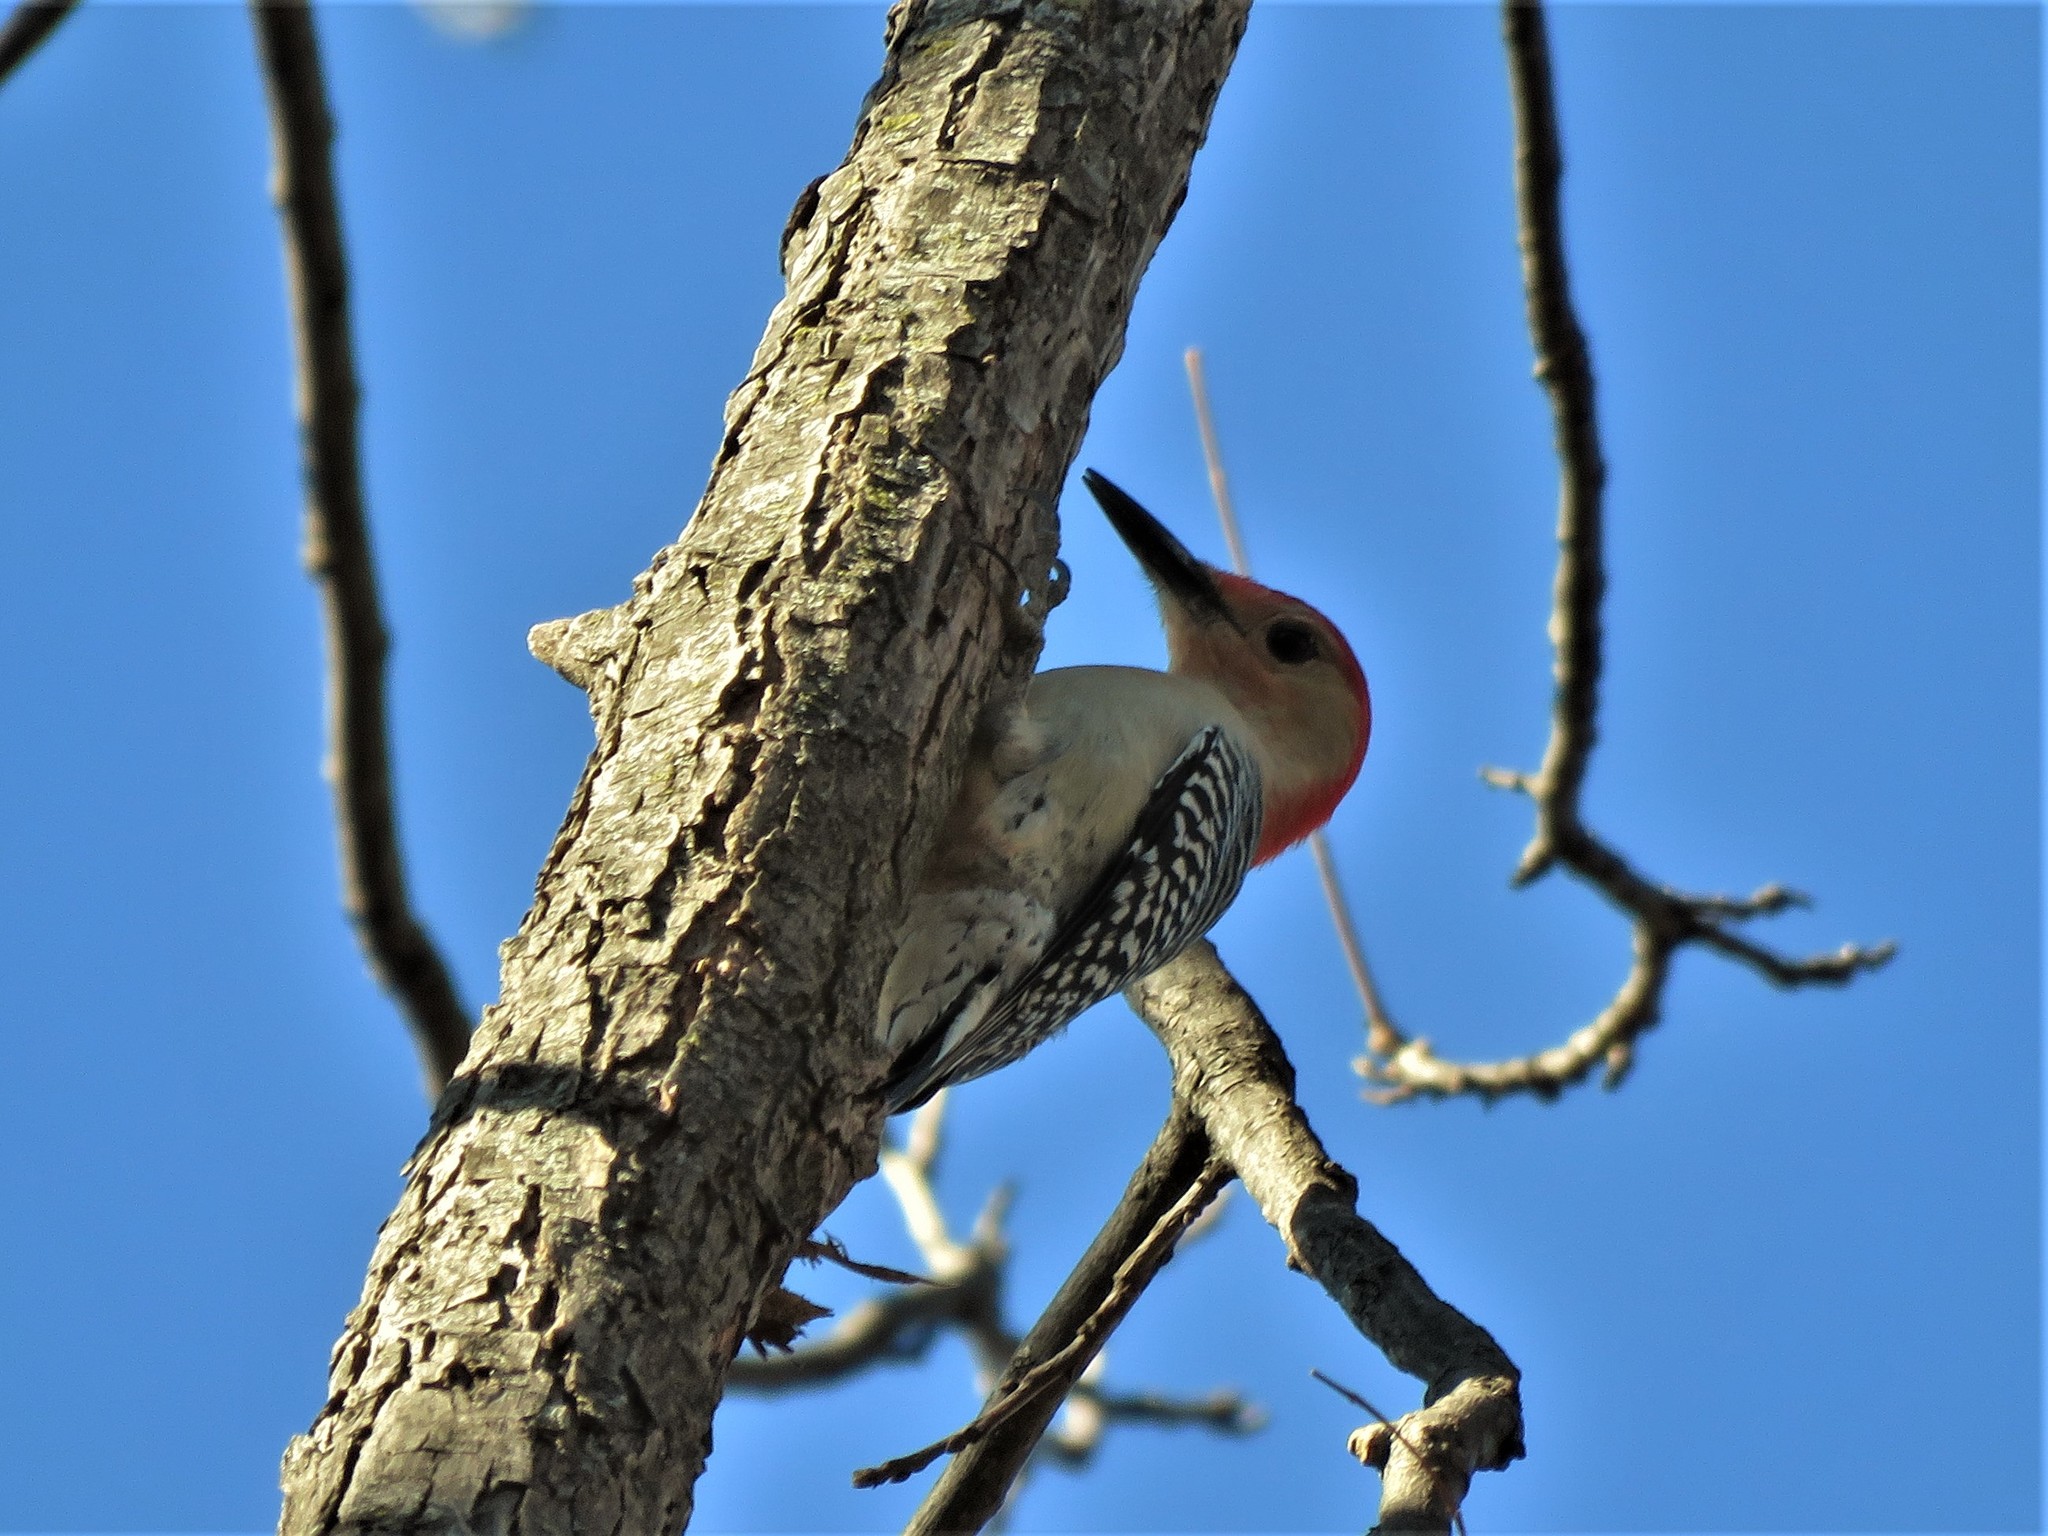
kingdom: Animalia
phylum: Chordata
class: Aves
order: Piciformes
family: Picidae
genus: Melanerpes
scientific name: Melanerpes carolinus
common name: Red-bellied woodpecker
